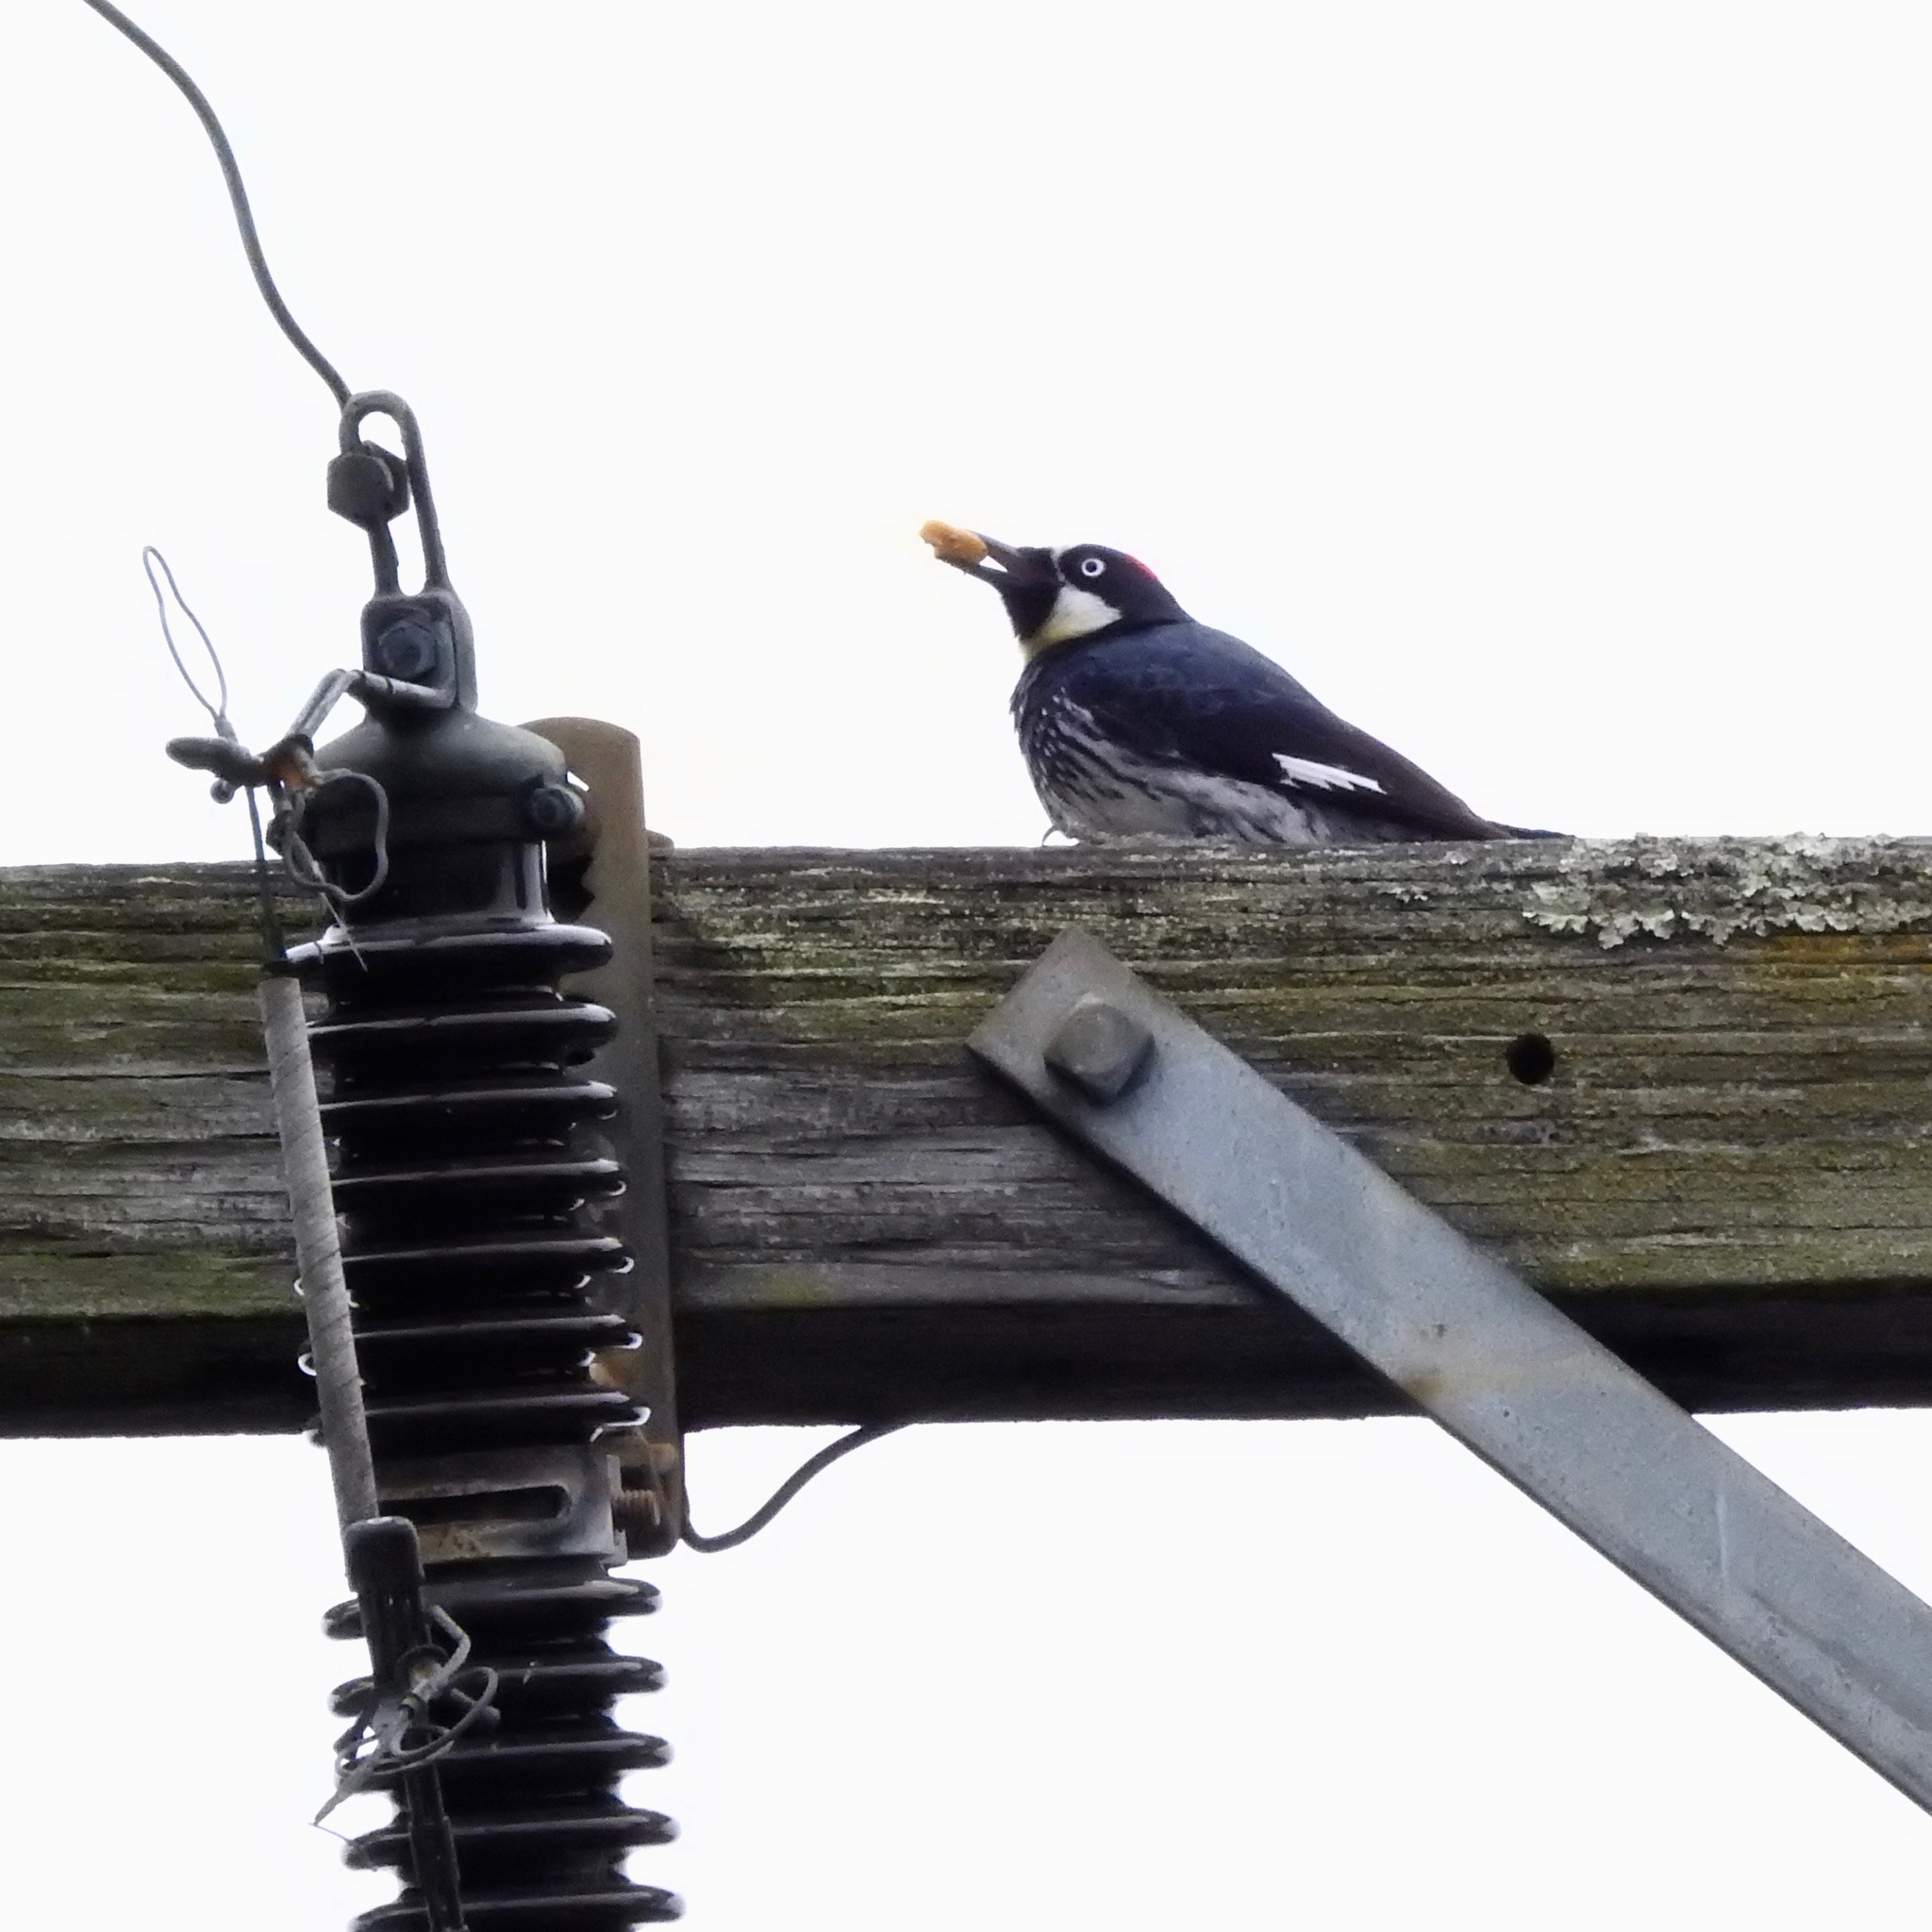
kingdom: Animalia
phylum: Chordata
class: Aves
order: Piciformes
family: Picidae
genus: Melanerpes
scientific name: Melanerpes formicivorus
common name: Acorn woodpecker
